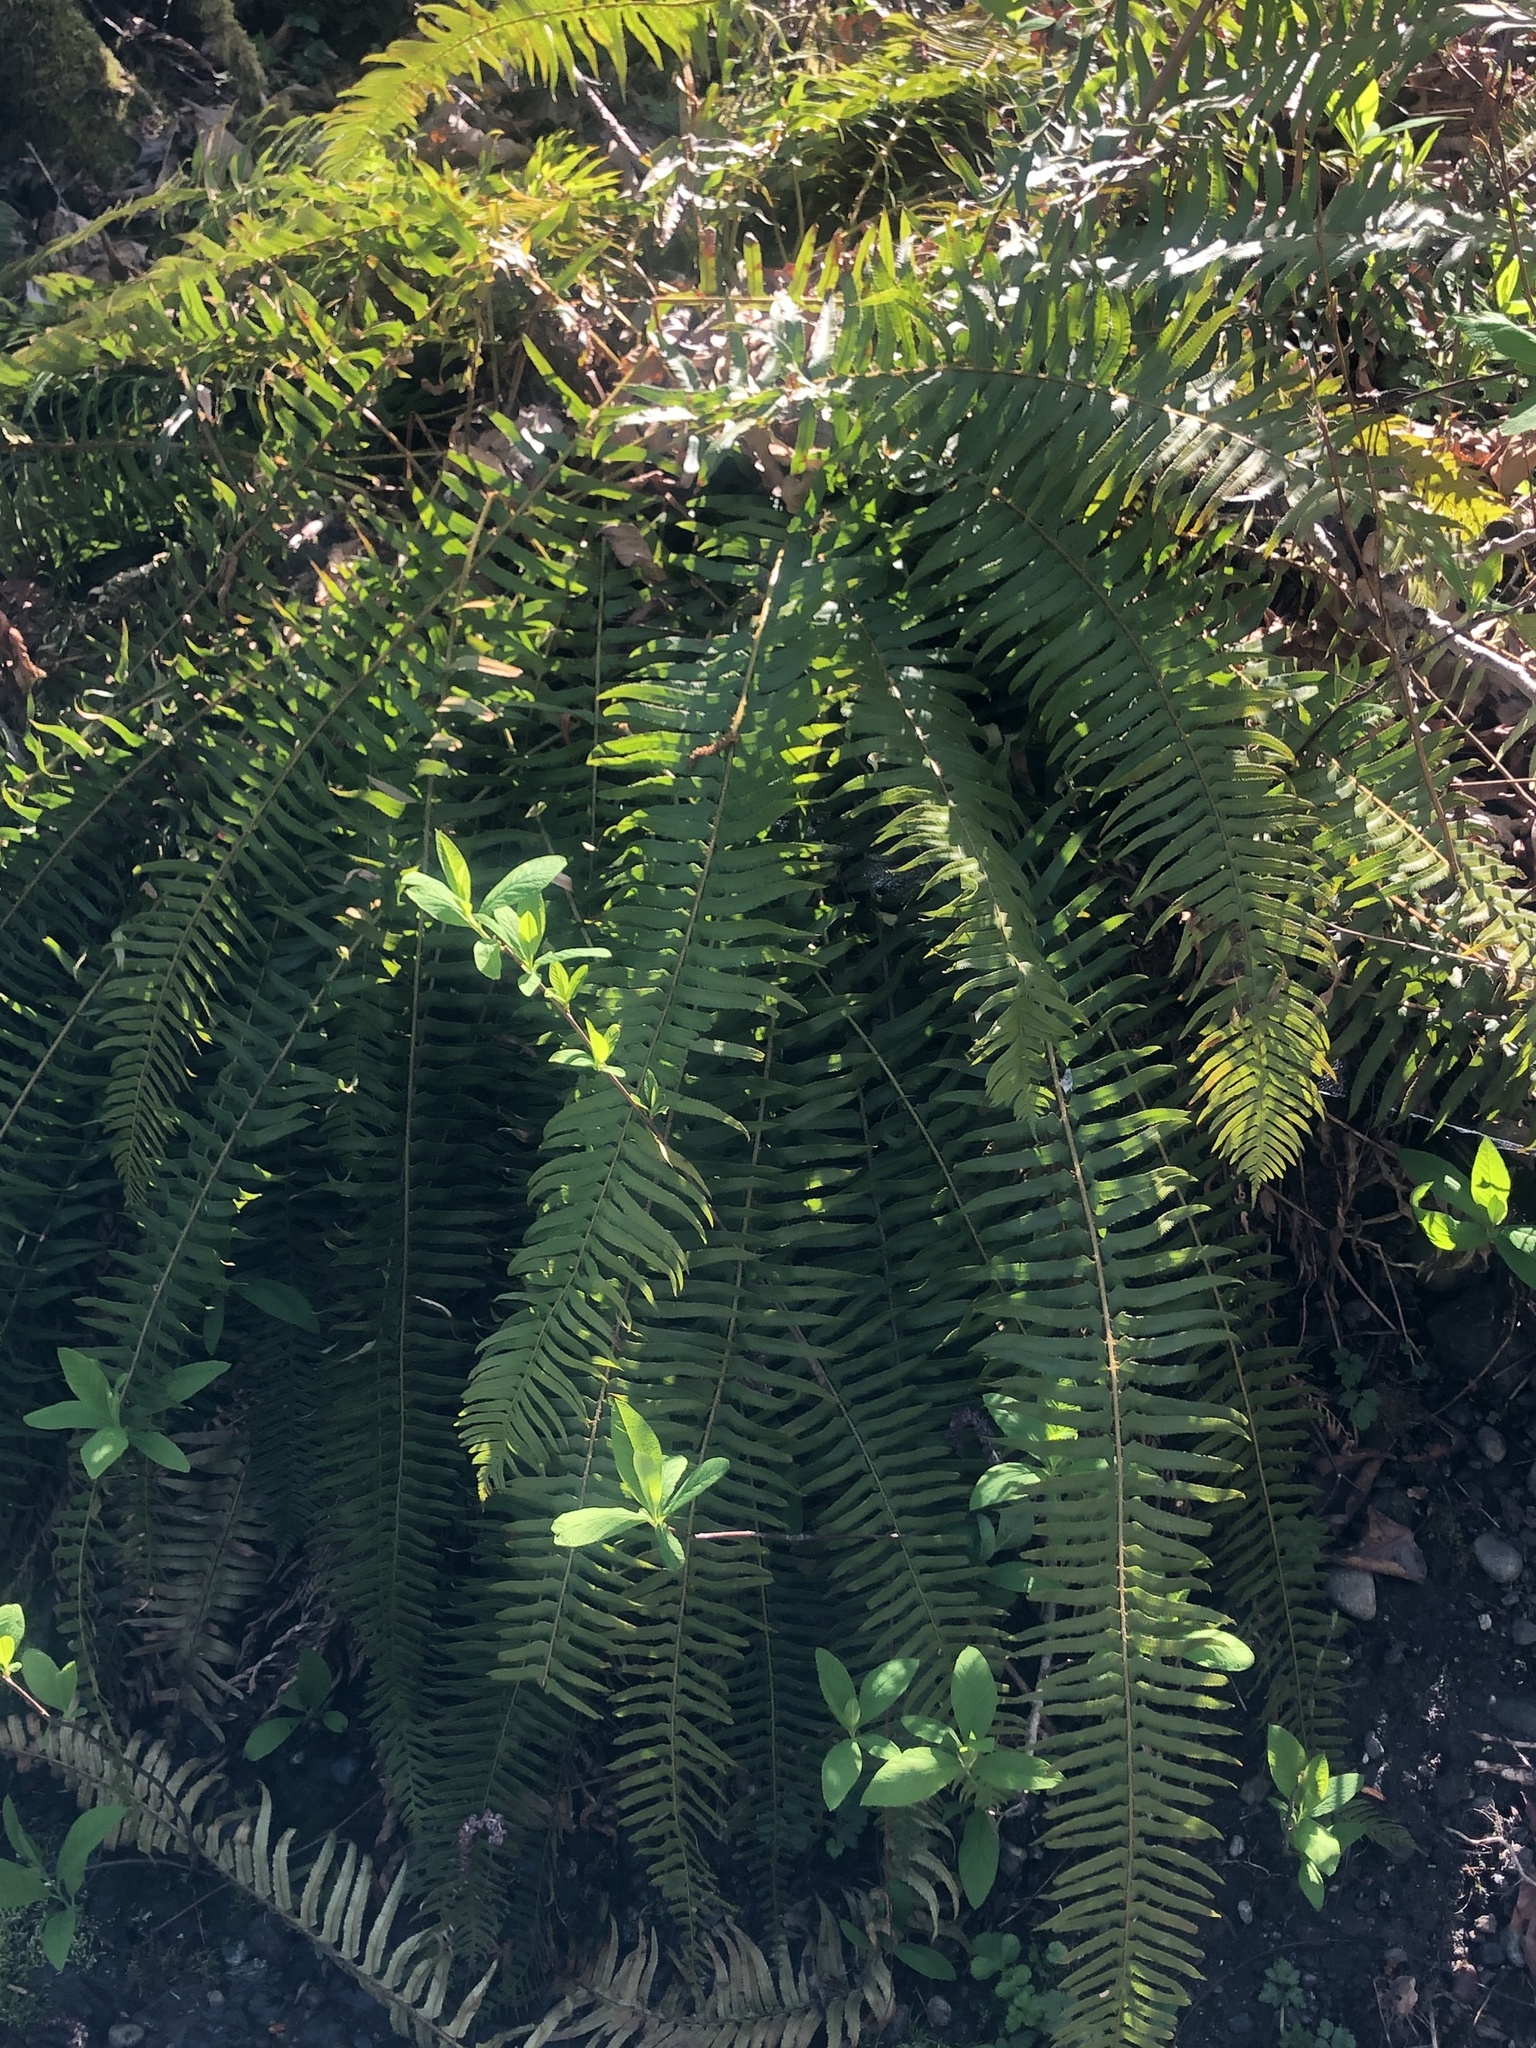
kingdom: Plantae
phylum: Tracheophyta
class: Polypodiopsida
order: Polypodiales
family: Dryopteridaceae
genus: Polystichum
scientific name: Polystichum munitum
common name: Western sword-fern
